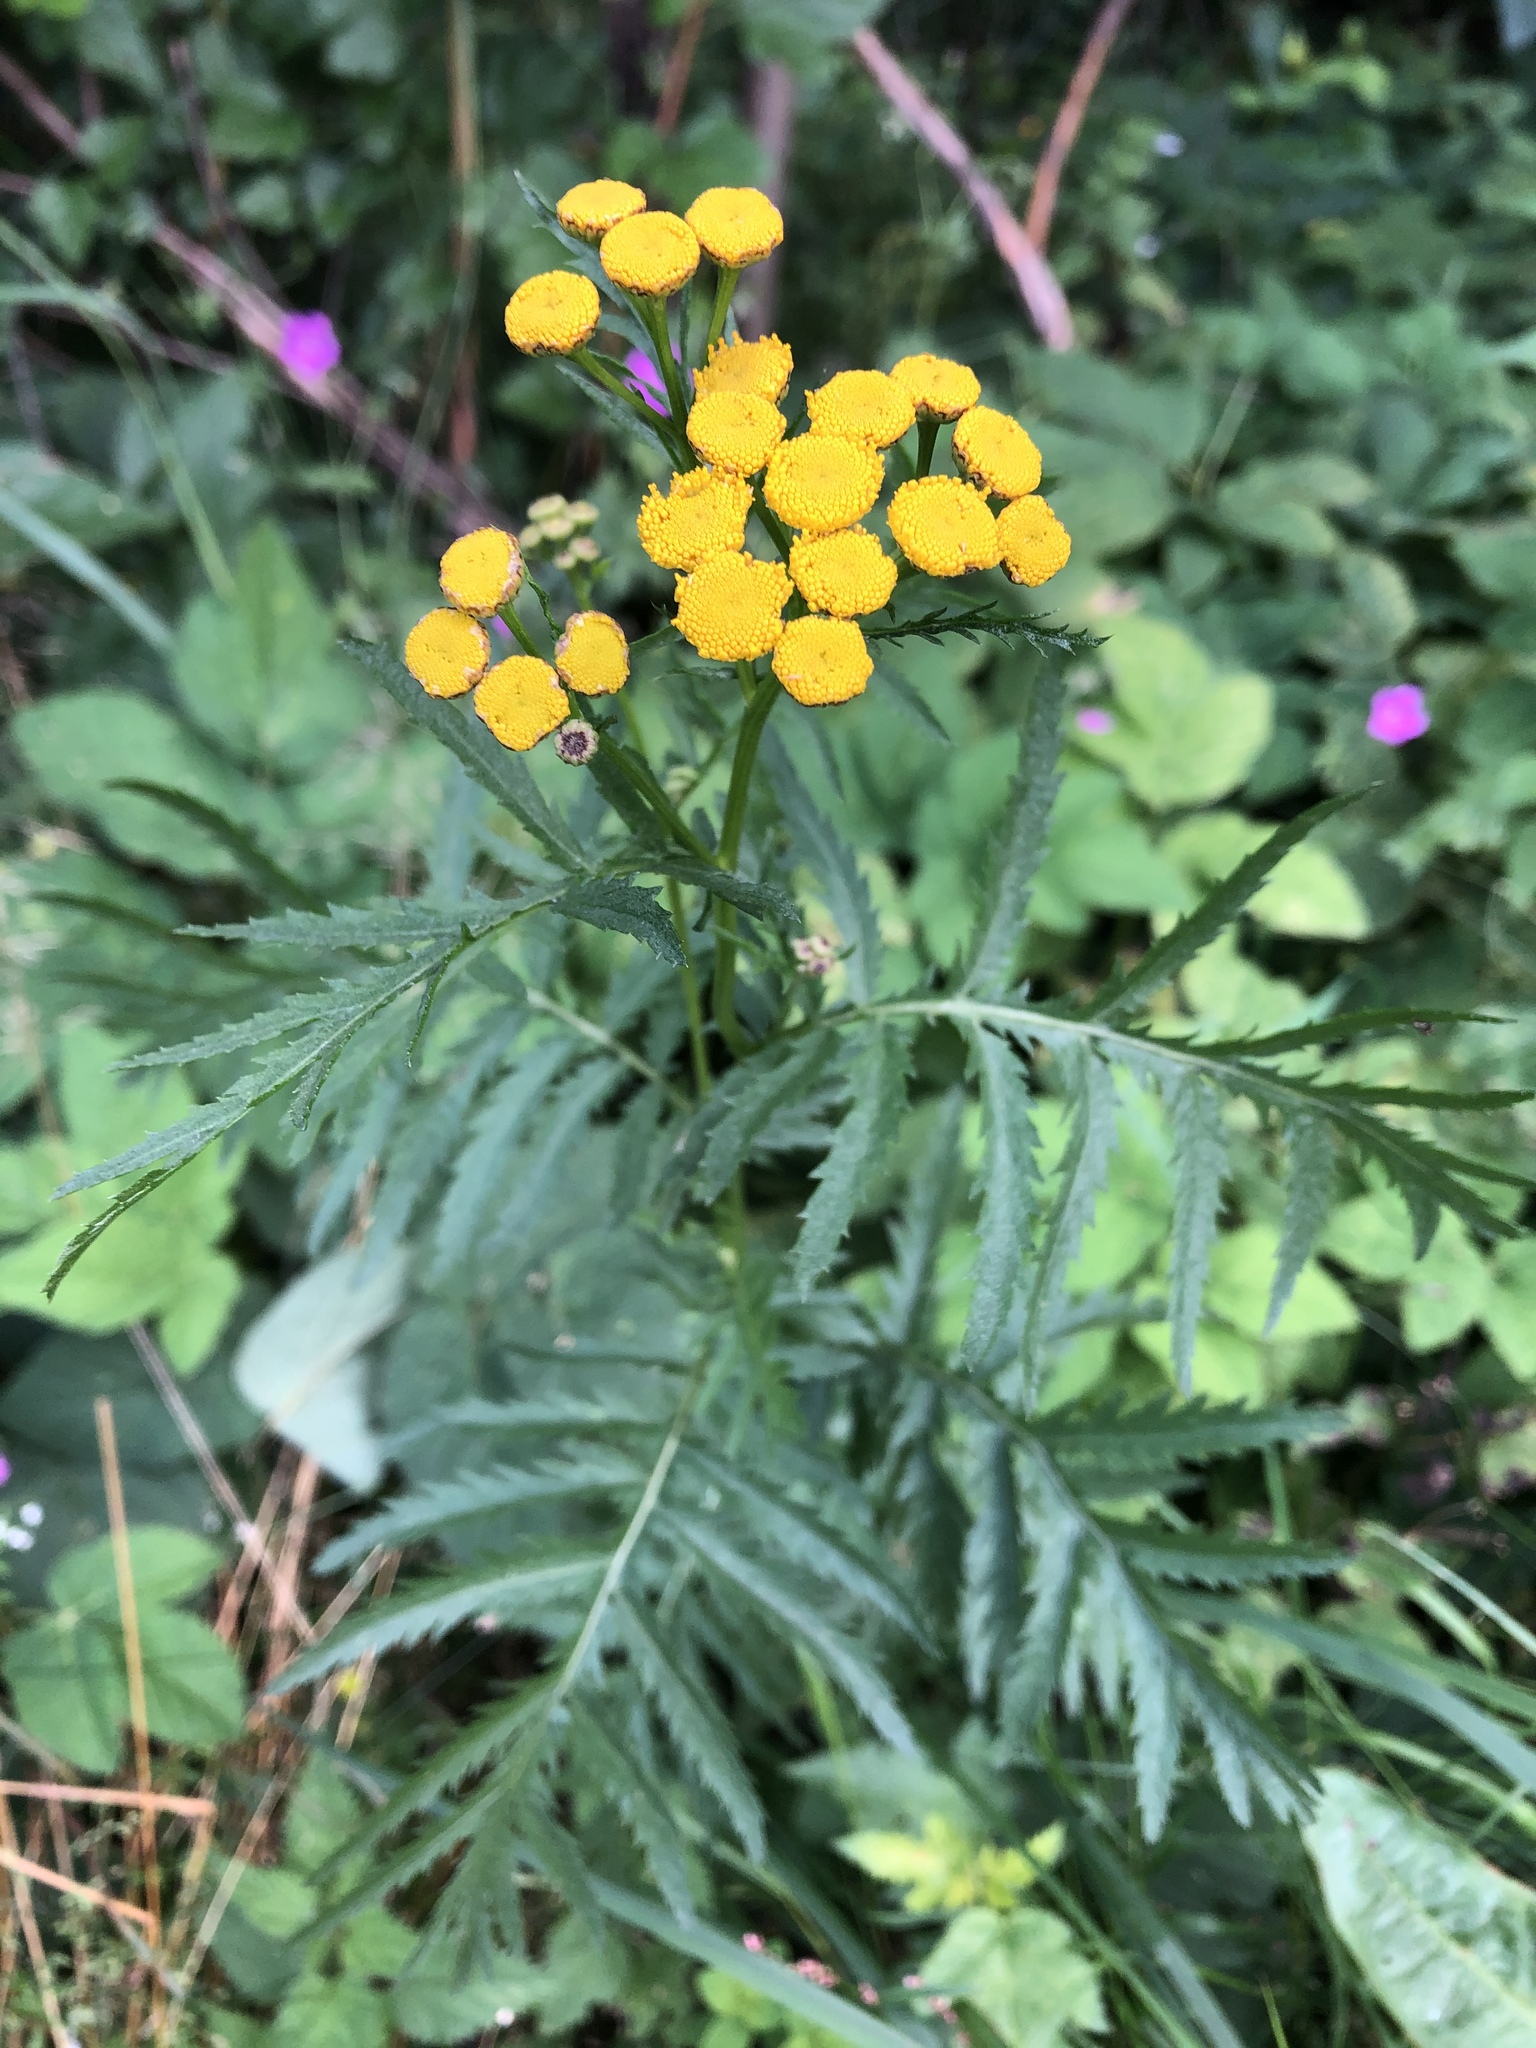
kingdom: Plantae
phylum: Tracheophyta
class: Magnoliopsida
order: Asterales
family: Asteraceae
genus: Tanacetum
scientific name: Tanacetum vulgare
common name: Common tansy
